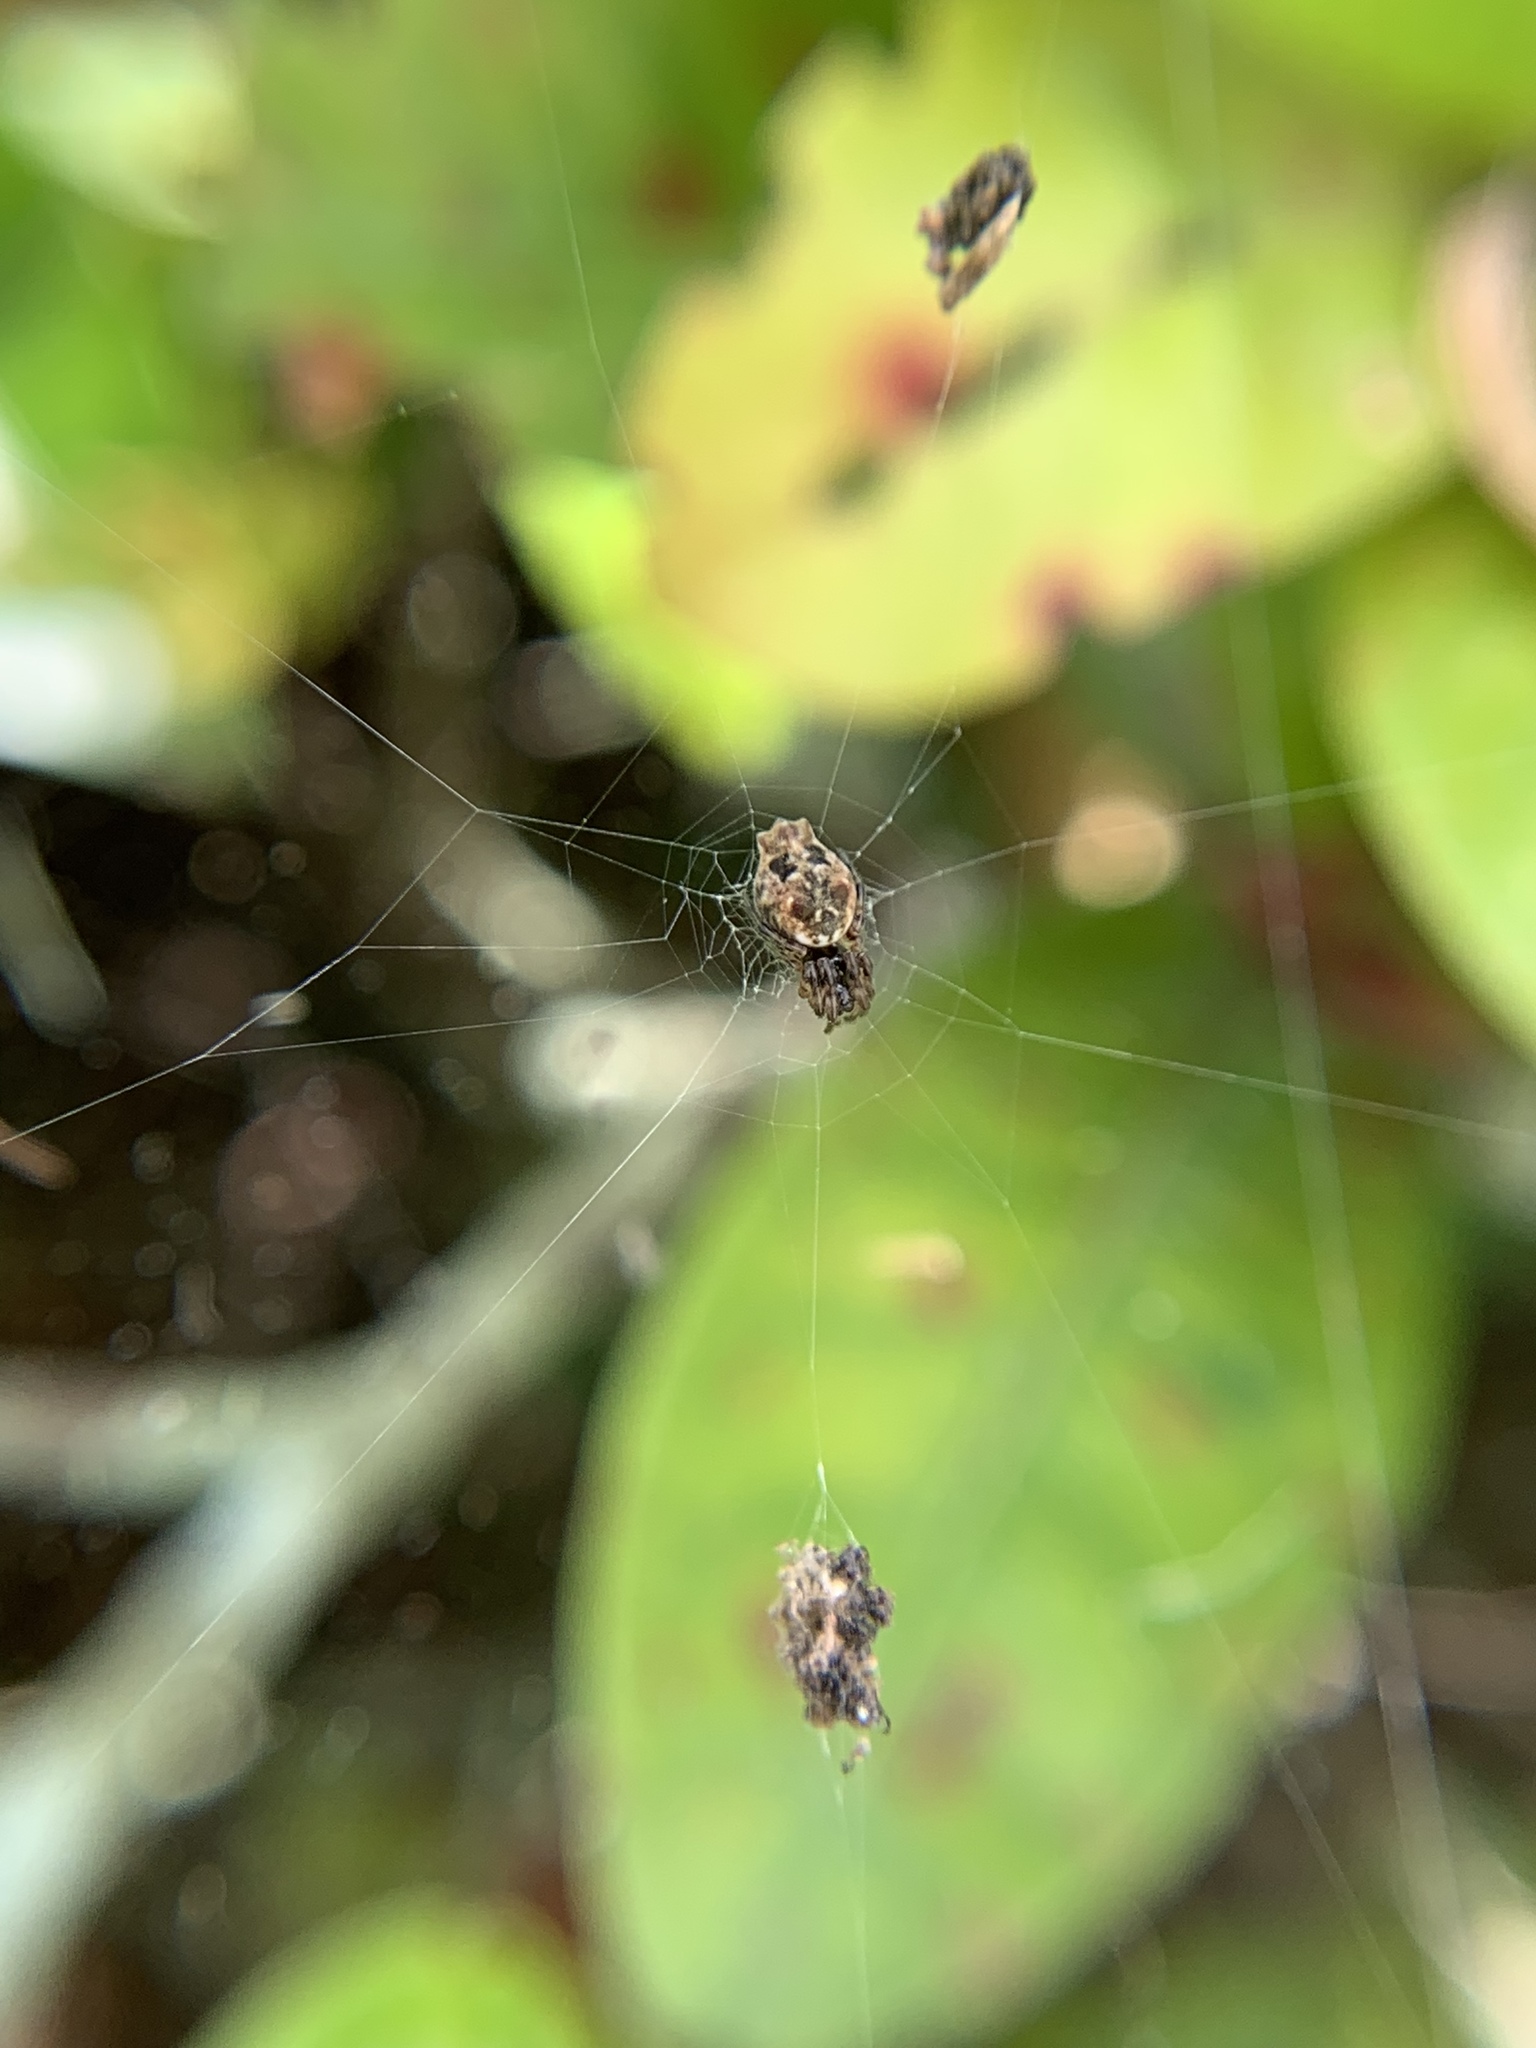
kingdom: Animalia
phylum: Arthropoda
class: Arachnida
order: Araneae
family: Araneidae
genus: Cyclosa
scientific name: Cyclosa walckenaeri
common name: Orb weavers
